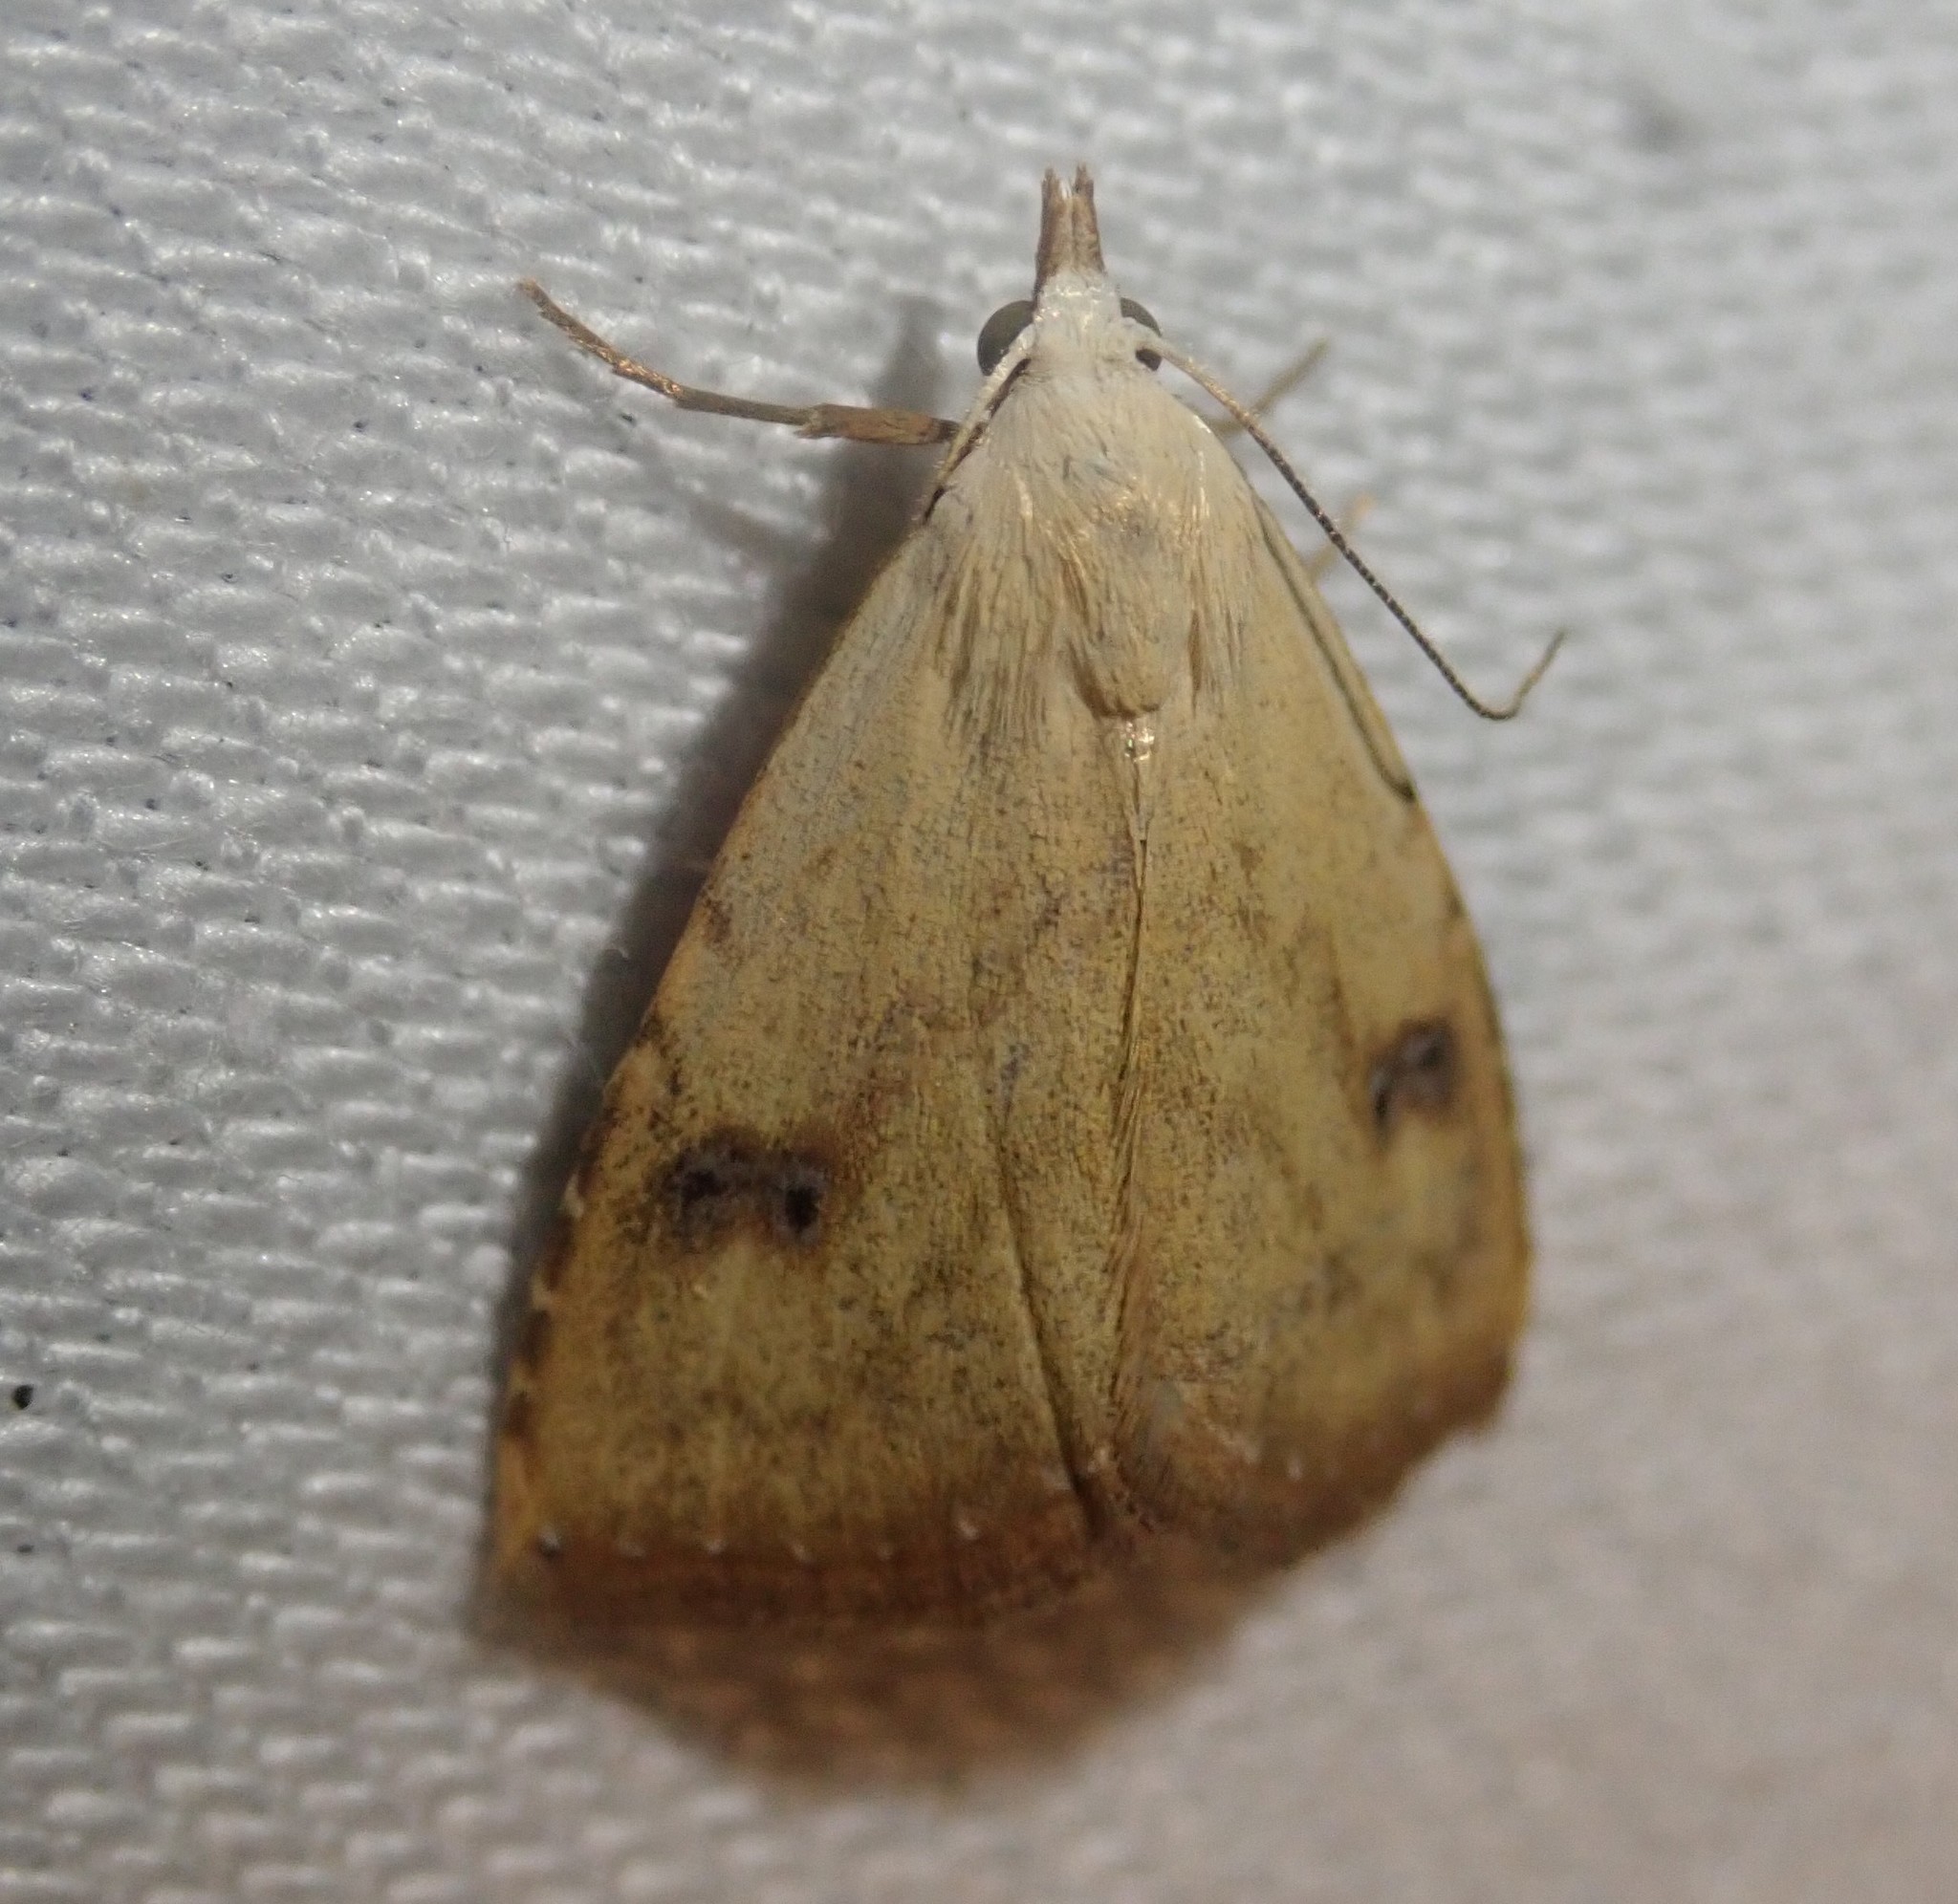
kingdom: Animalia
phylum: Arthropoda
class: Insecta
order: Lepidoptera
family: Erebidae
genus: Rivula
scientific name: Rivula sericealis
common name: Straw dot
